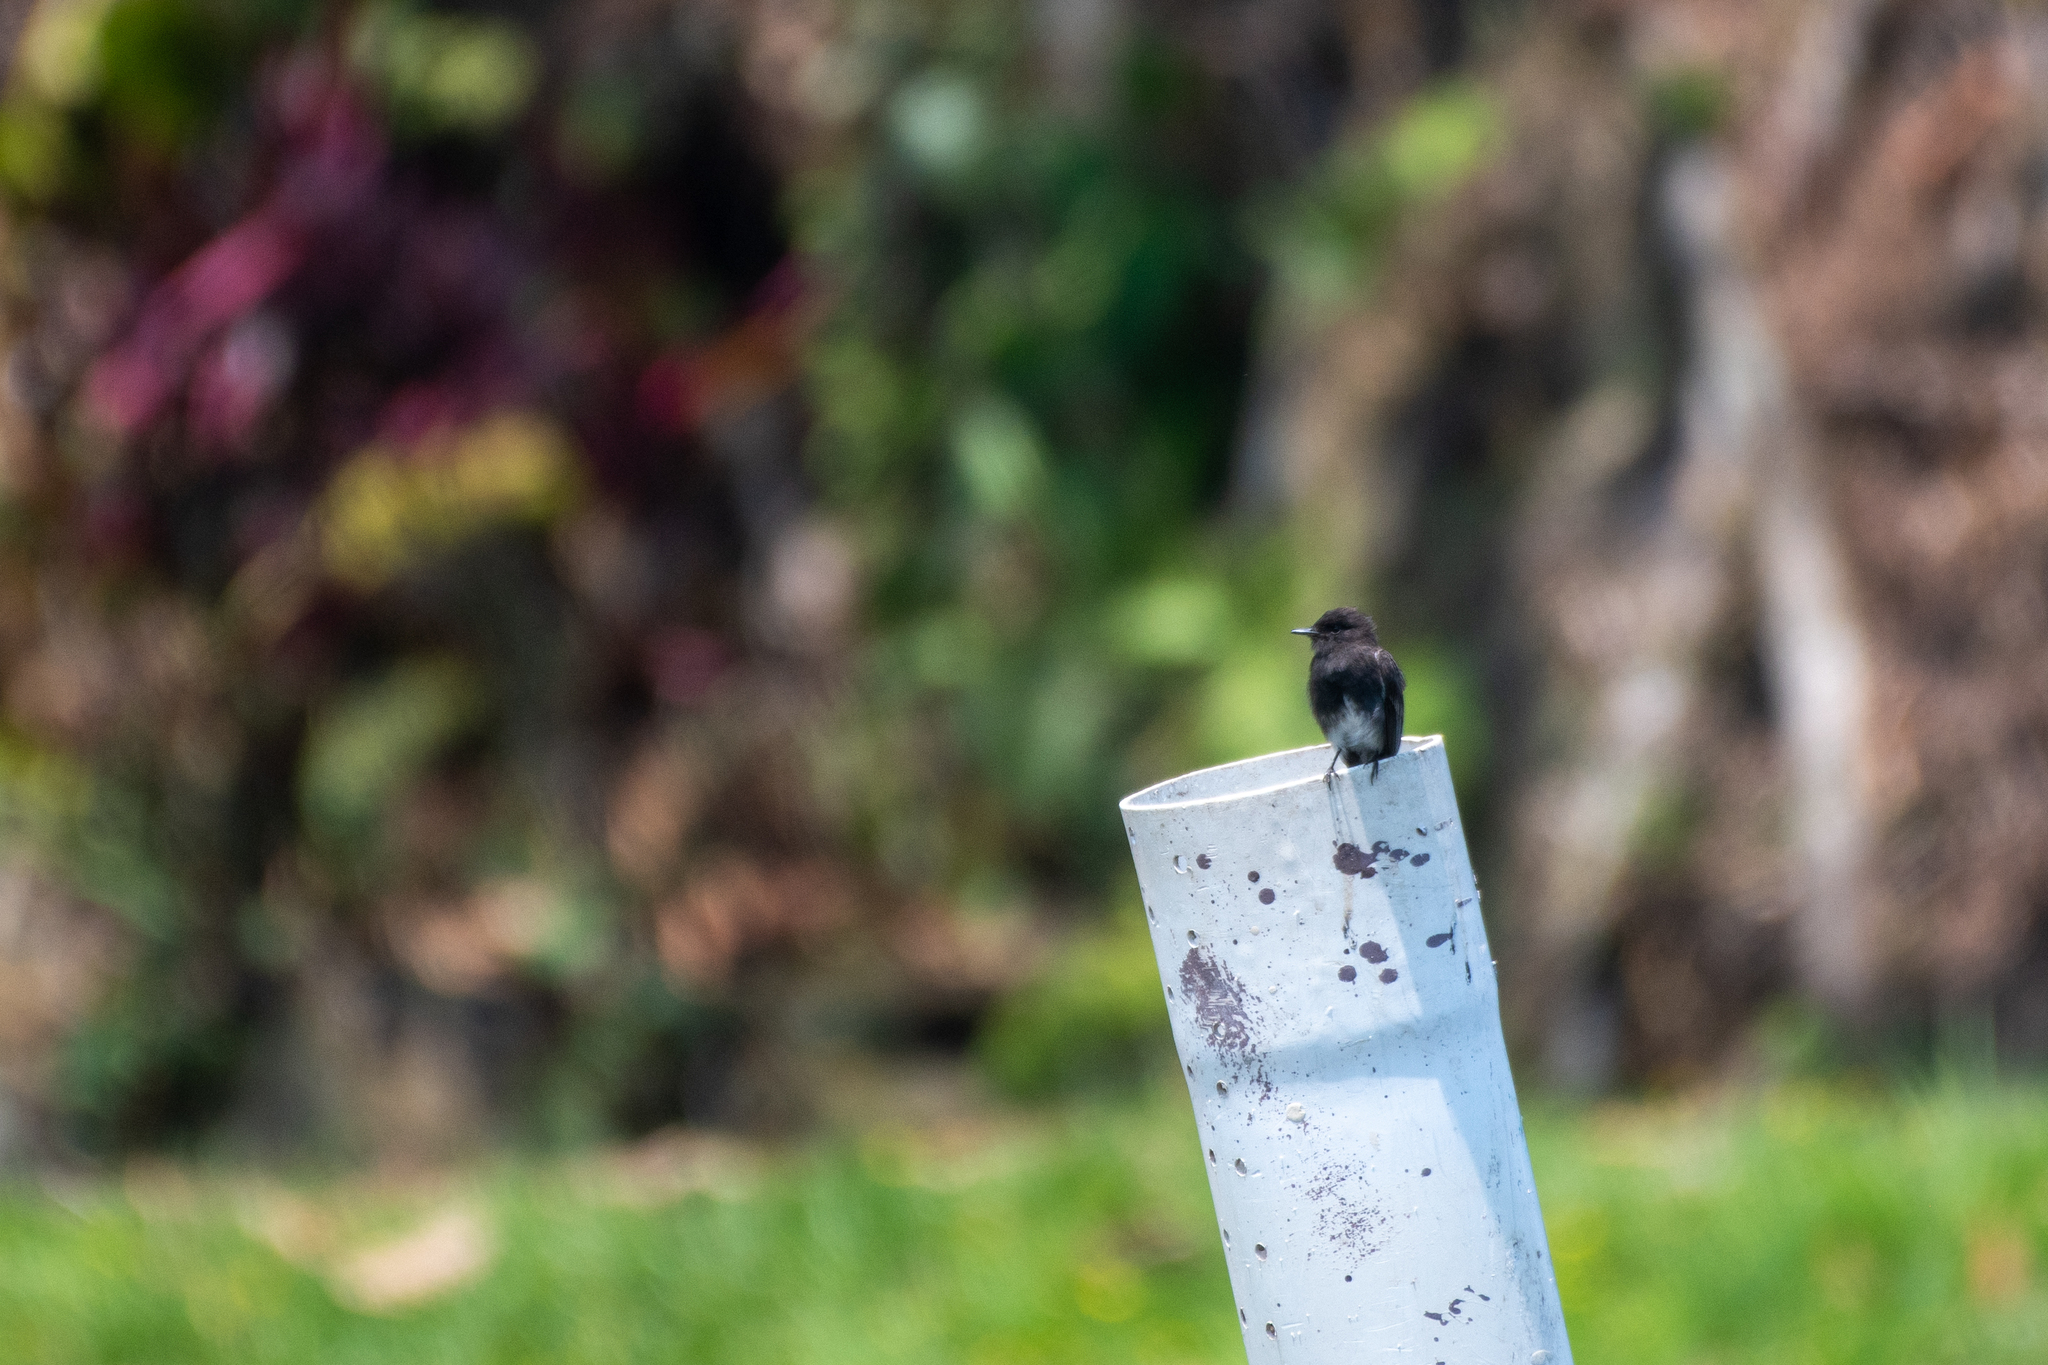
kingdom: Animalia
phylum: Chordata
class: Aves
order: Passeriformes
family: Tyrannidae
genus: Sayornis
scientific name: Sayornis nigricans
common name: Black phoebe
